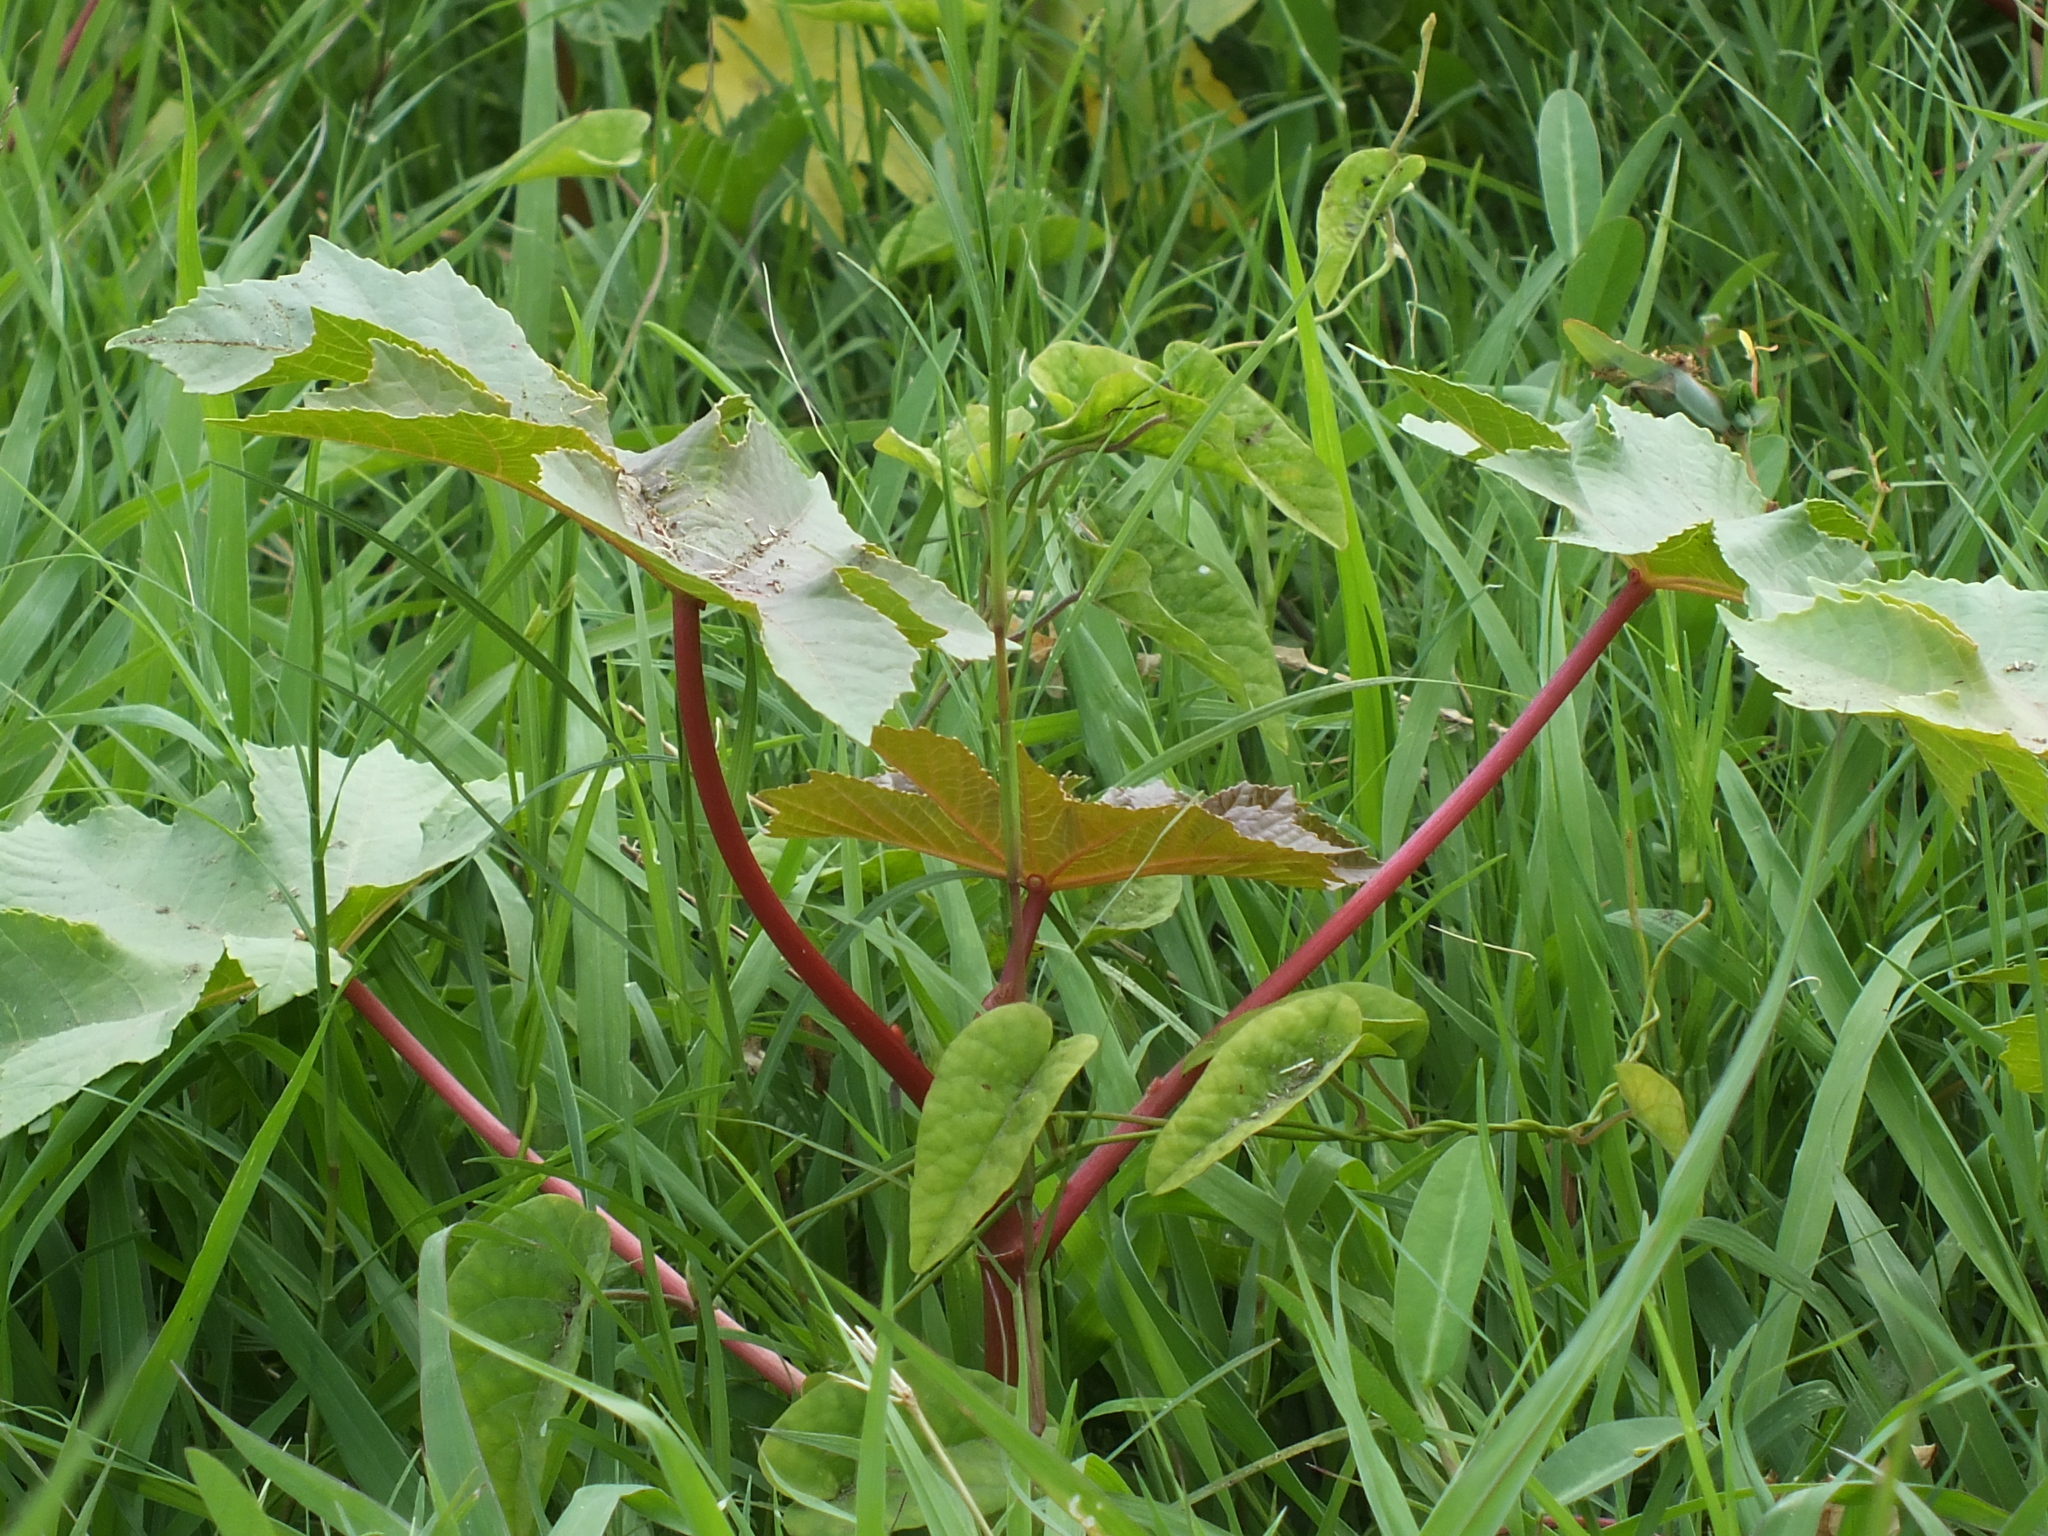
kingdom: Plantae
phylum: Tracheophyta
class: Magnoliopsida
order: Malpighiales
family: Euphorbiaceae
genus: Ricinus
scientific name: Ricinus communis
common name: Castor-oil-plant
